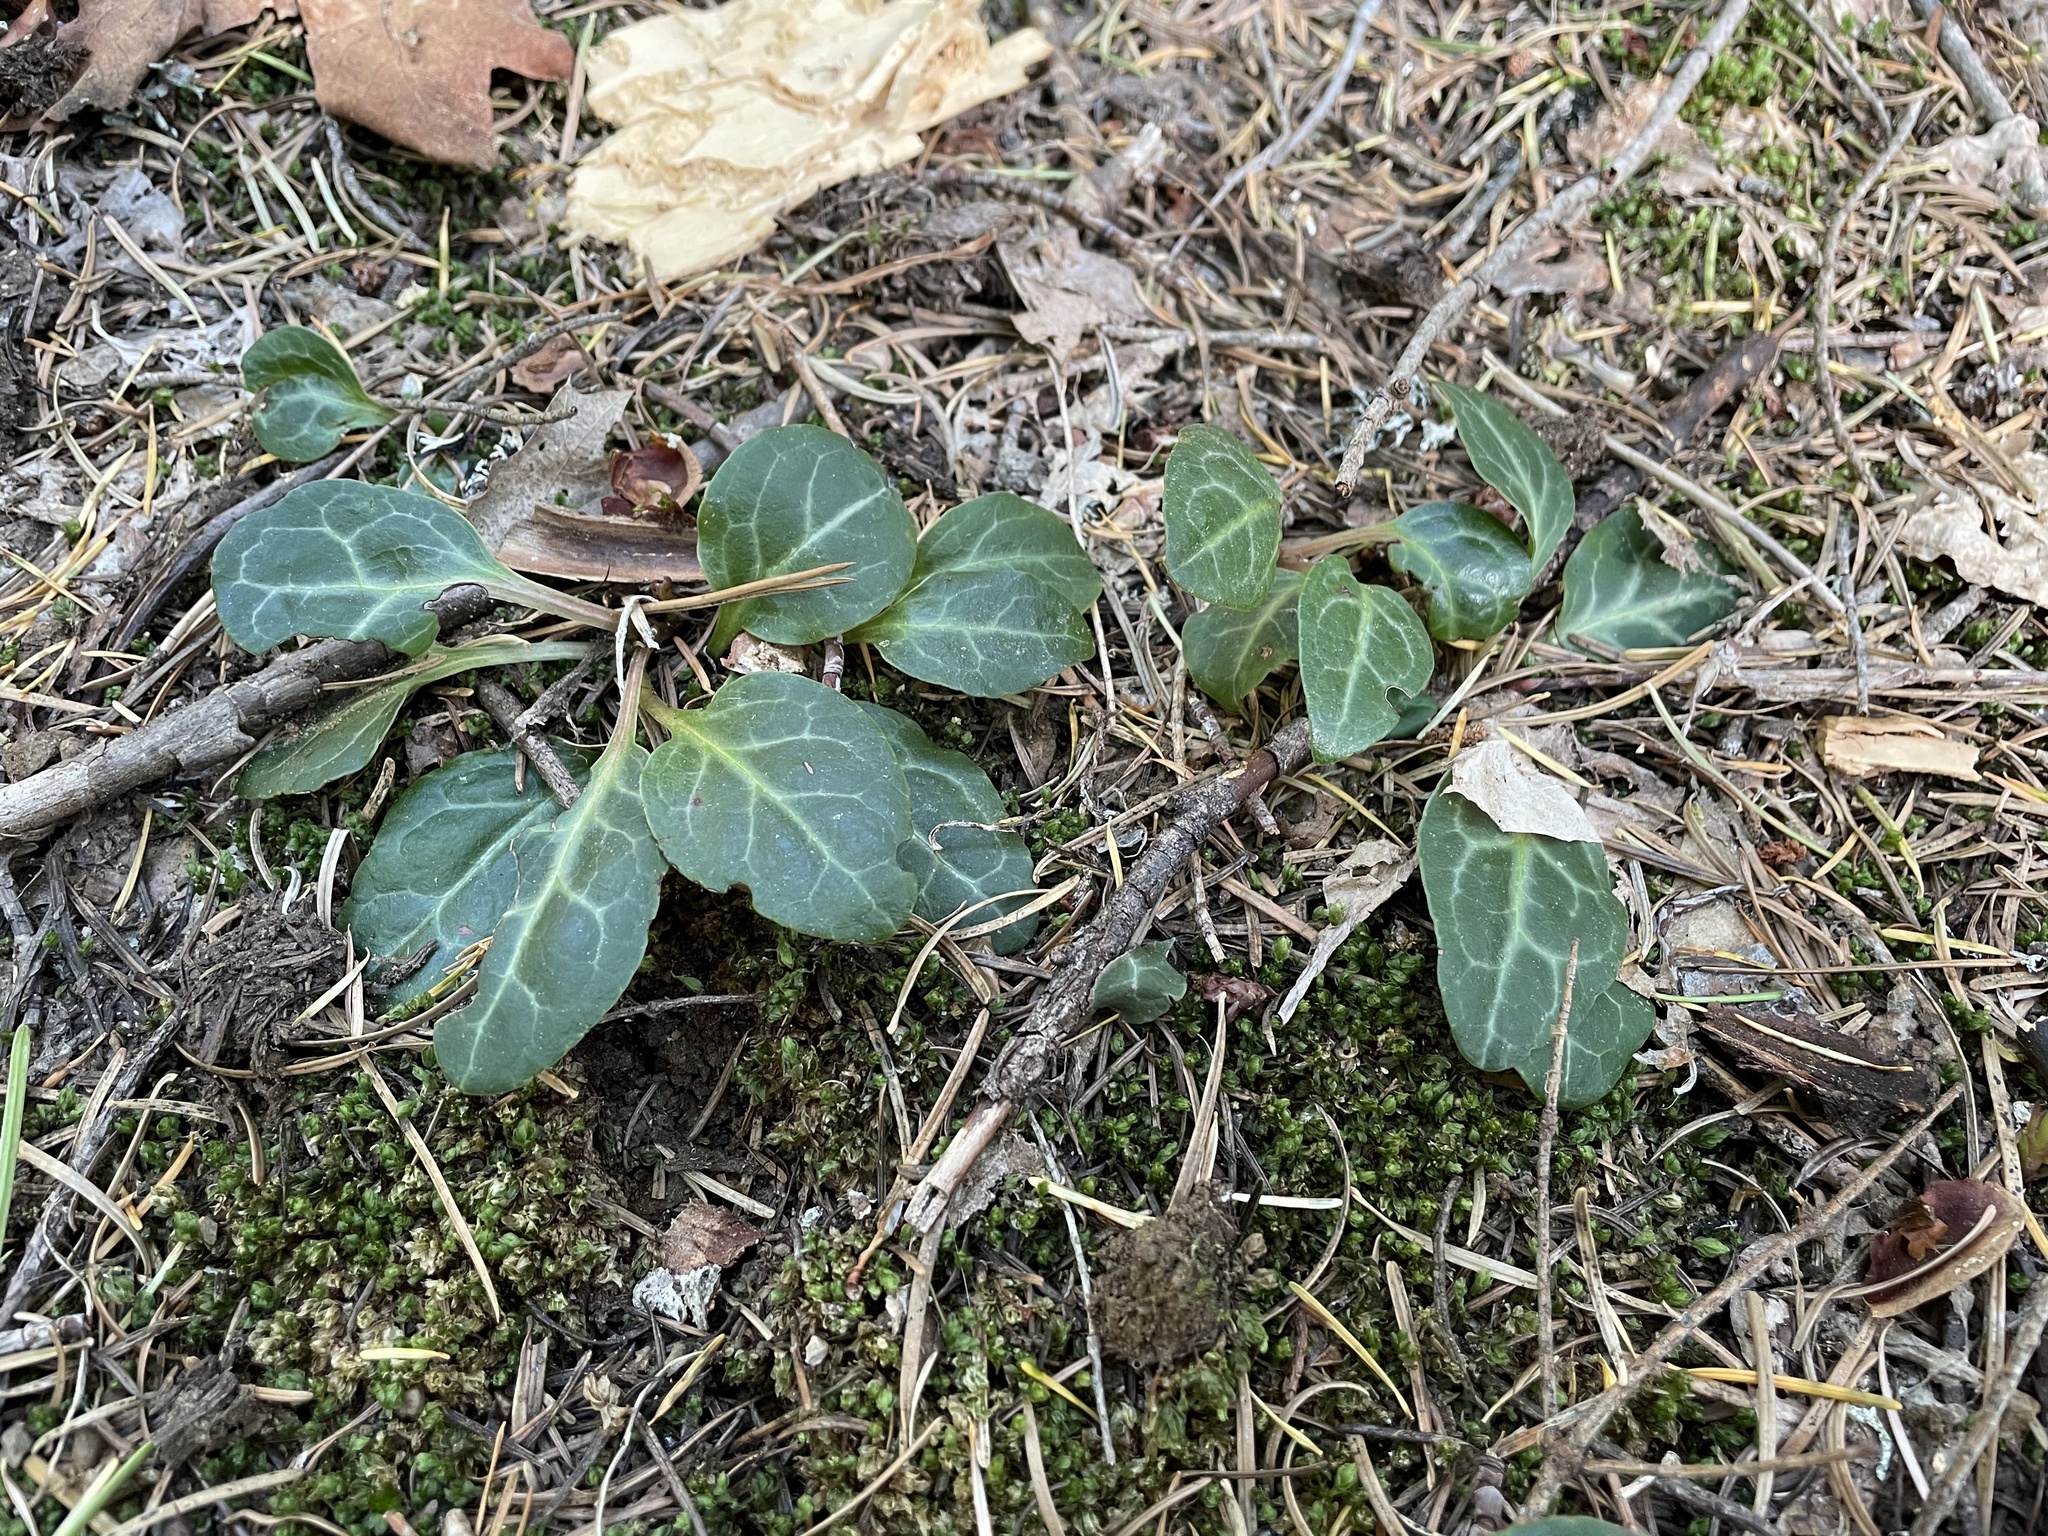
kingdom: Plantae
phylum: Tracheophyta
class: Magnoliopsida
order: Ericales
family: Ericaceae
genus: Pyrola
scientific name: Pyrola picta
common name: White-vein wintergreen
